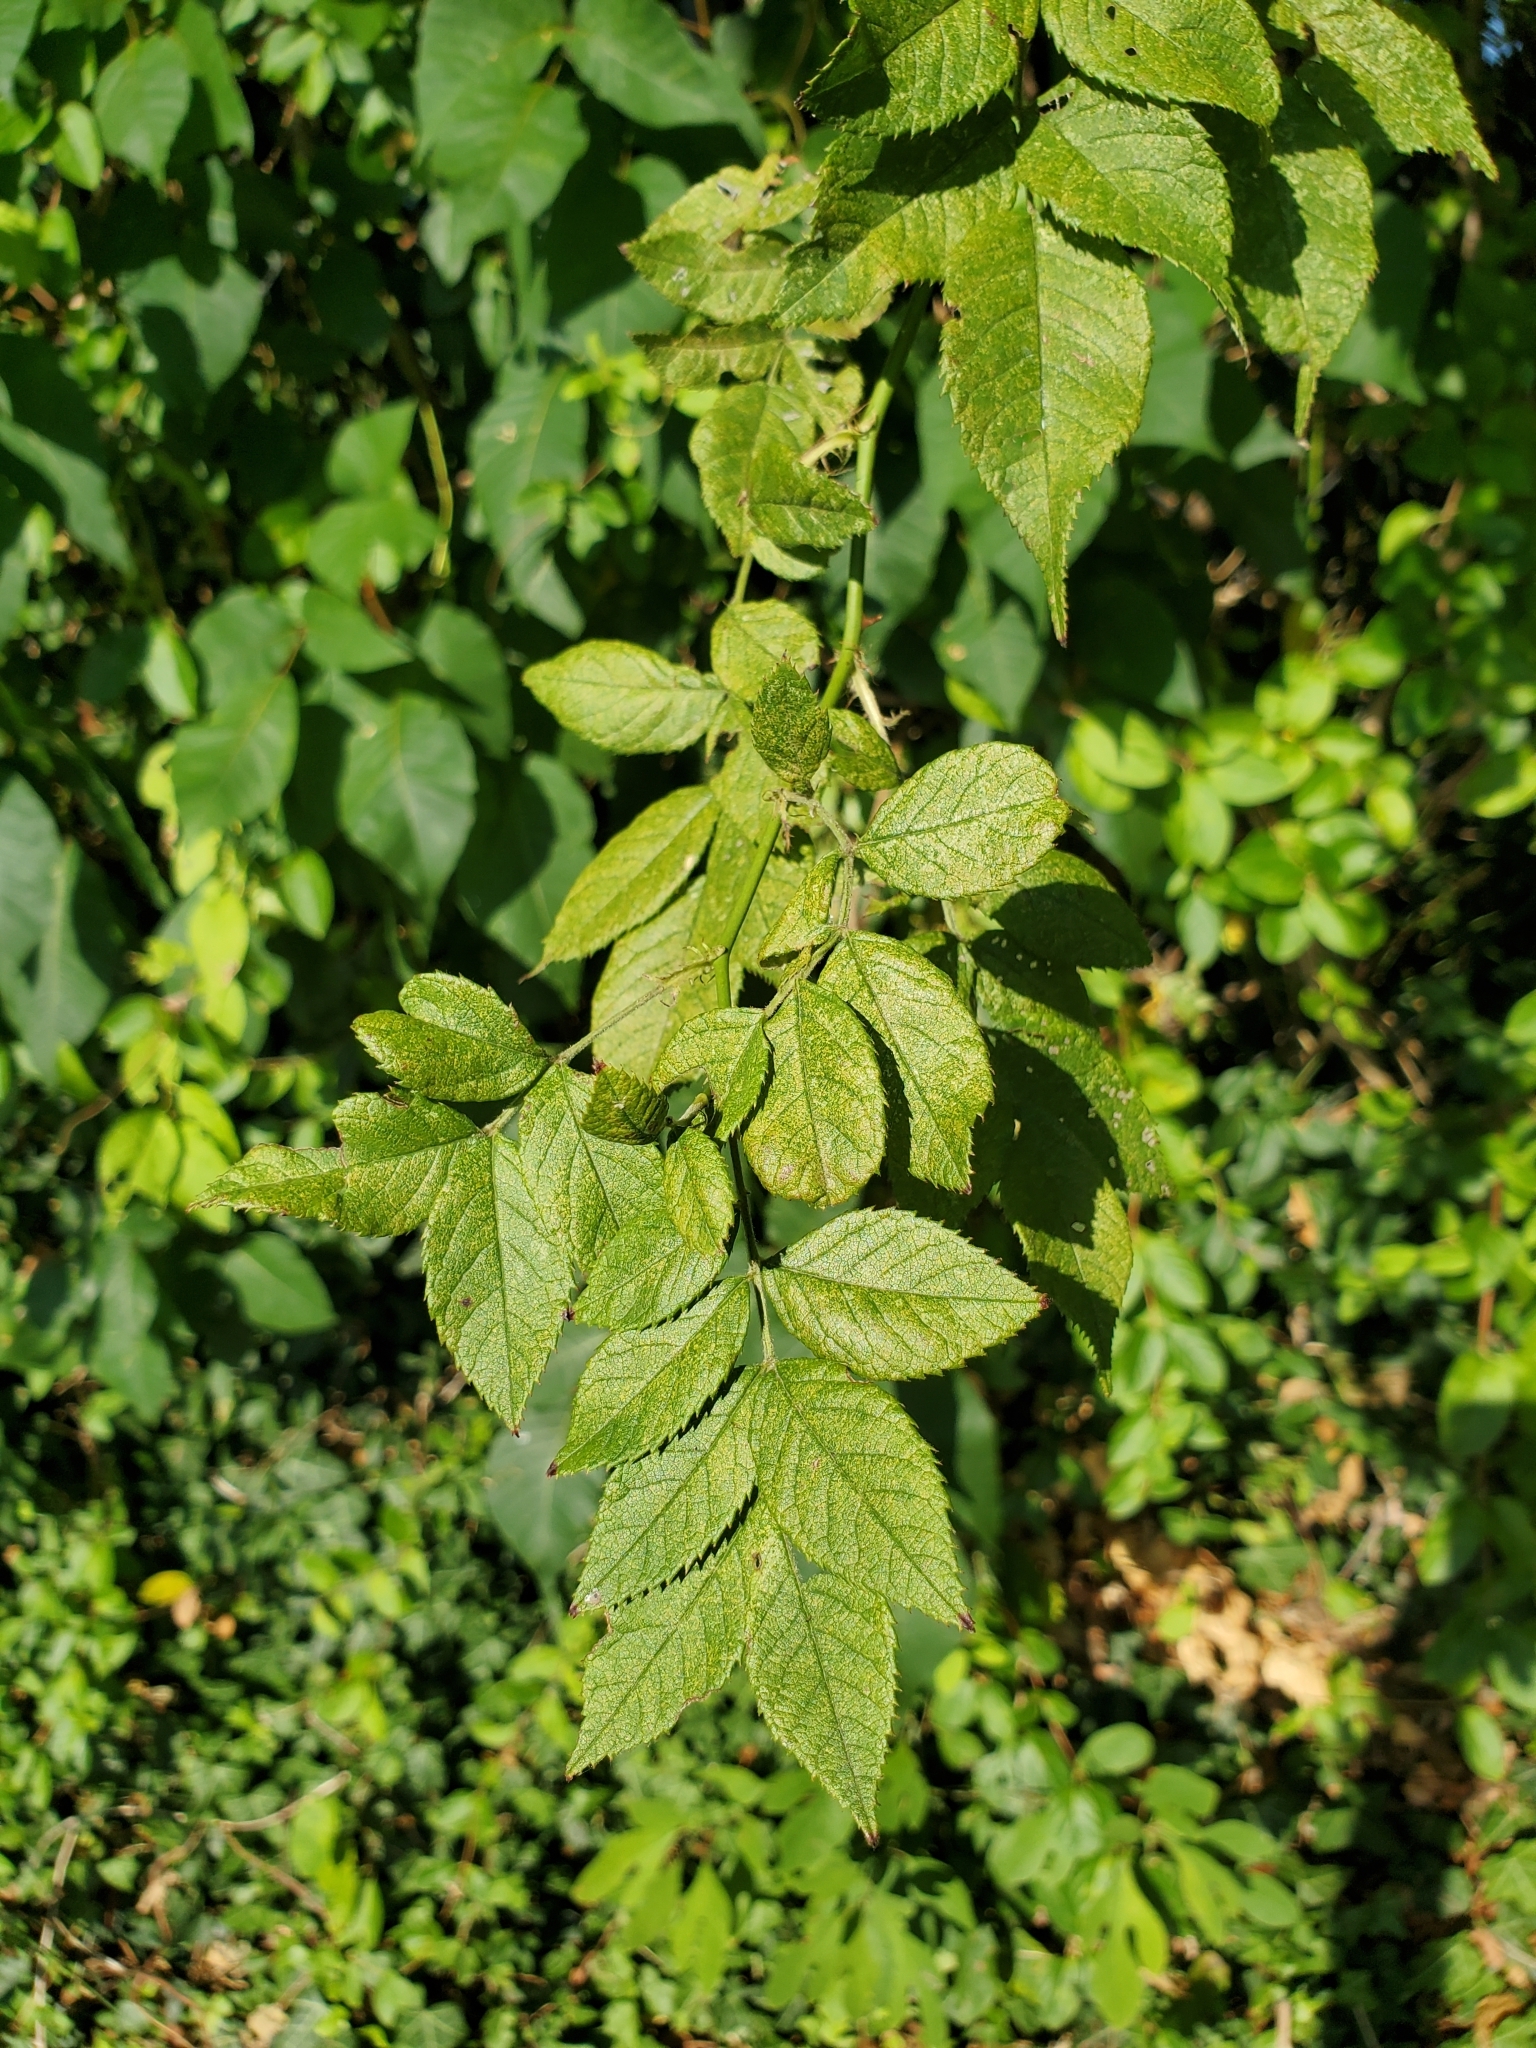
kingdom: Plantae
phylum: Tracheophyta
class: Magnoliopsida
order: Rosales
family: Rosaceae
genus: Rosa
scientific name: Rosa multiflora
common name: Multiflora rose
